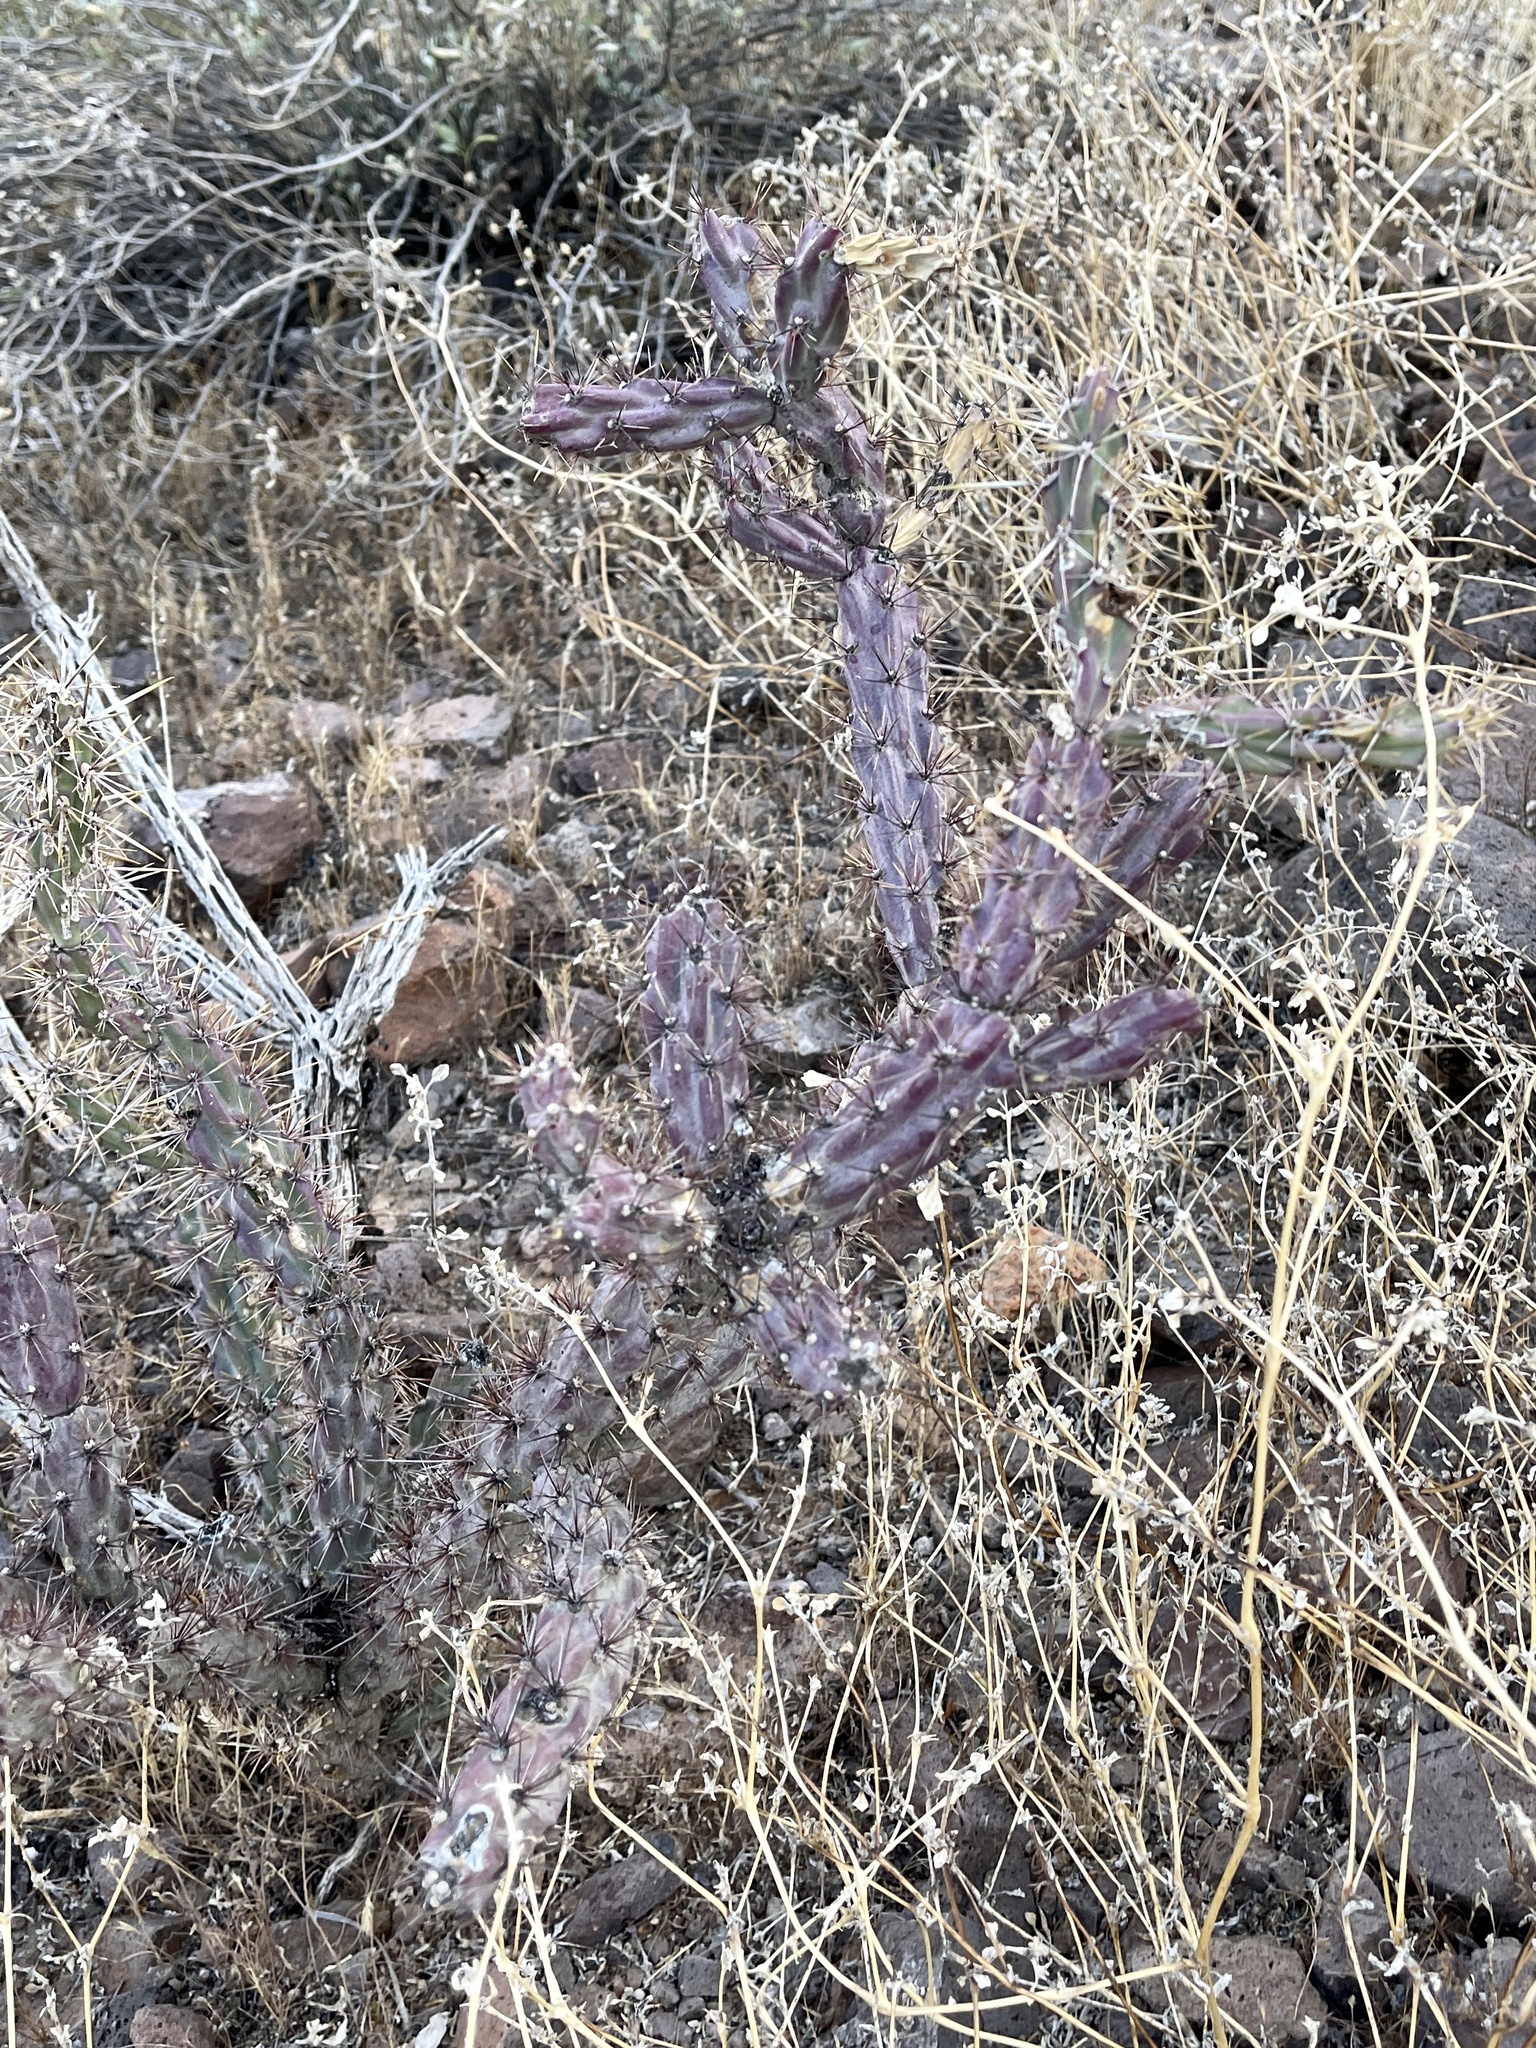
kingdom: Plantae
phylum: Tracheophyta
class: Magnoliopsida
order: Caryophyllales
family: Cactaceae
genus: Cylindropuntia
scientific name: Cylindropuntia thurberi
